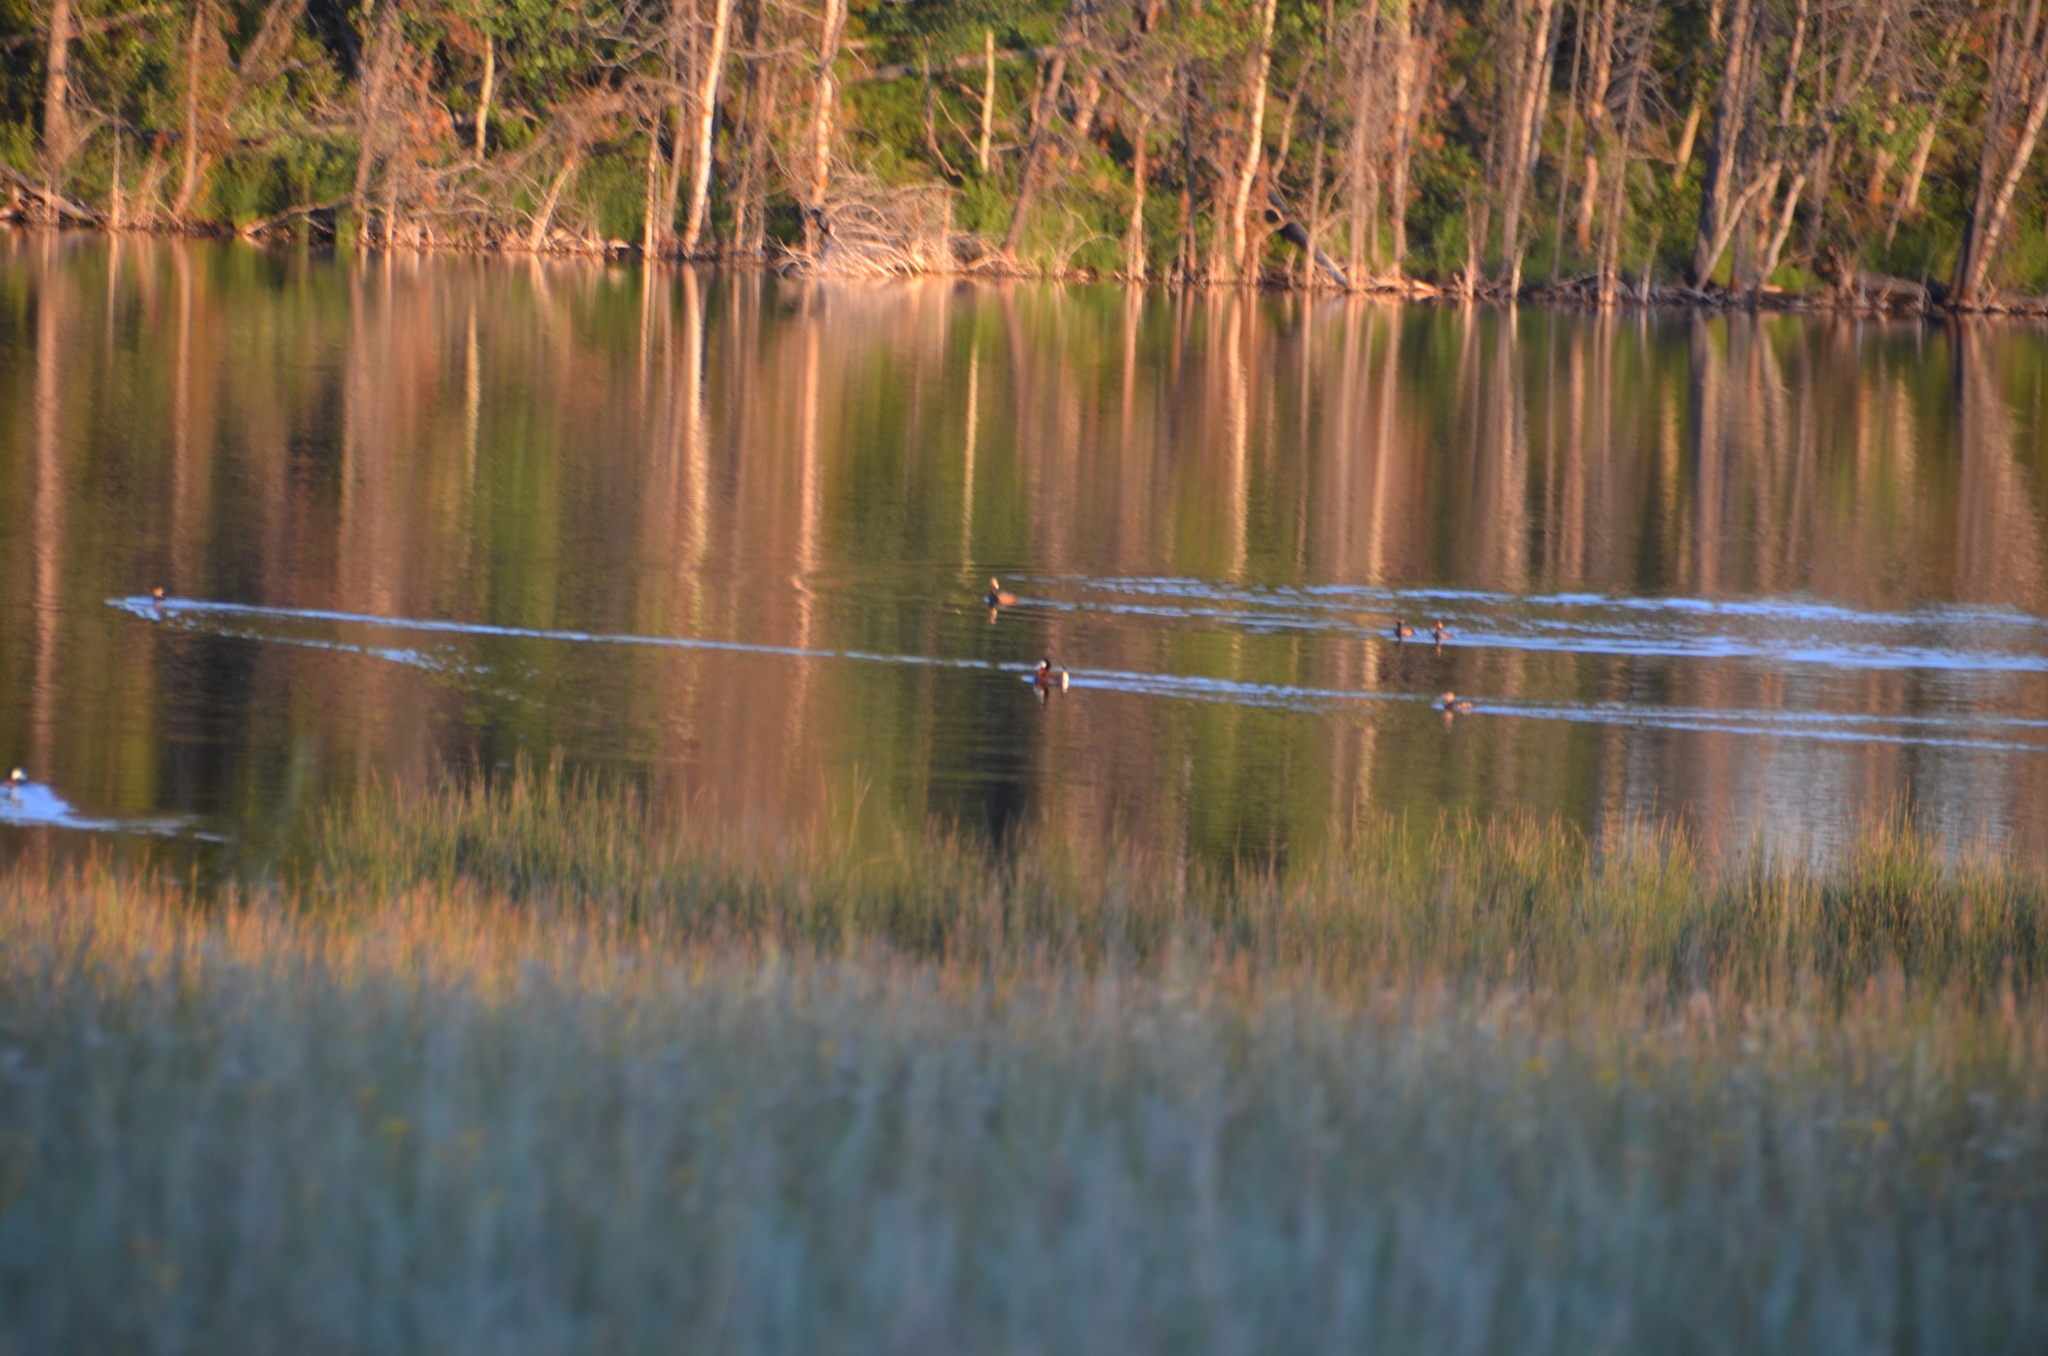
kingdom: Animalia
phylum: Chordata
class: Aves
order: Anseriformes
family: Anatidae
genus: Oxyura
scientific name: Oxyura jamaicensis
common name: Ruddy duck
